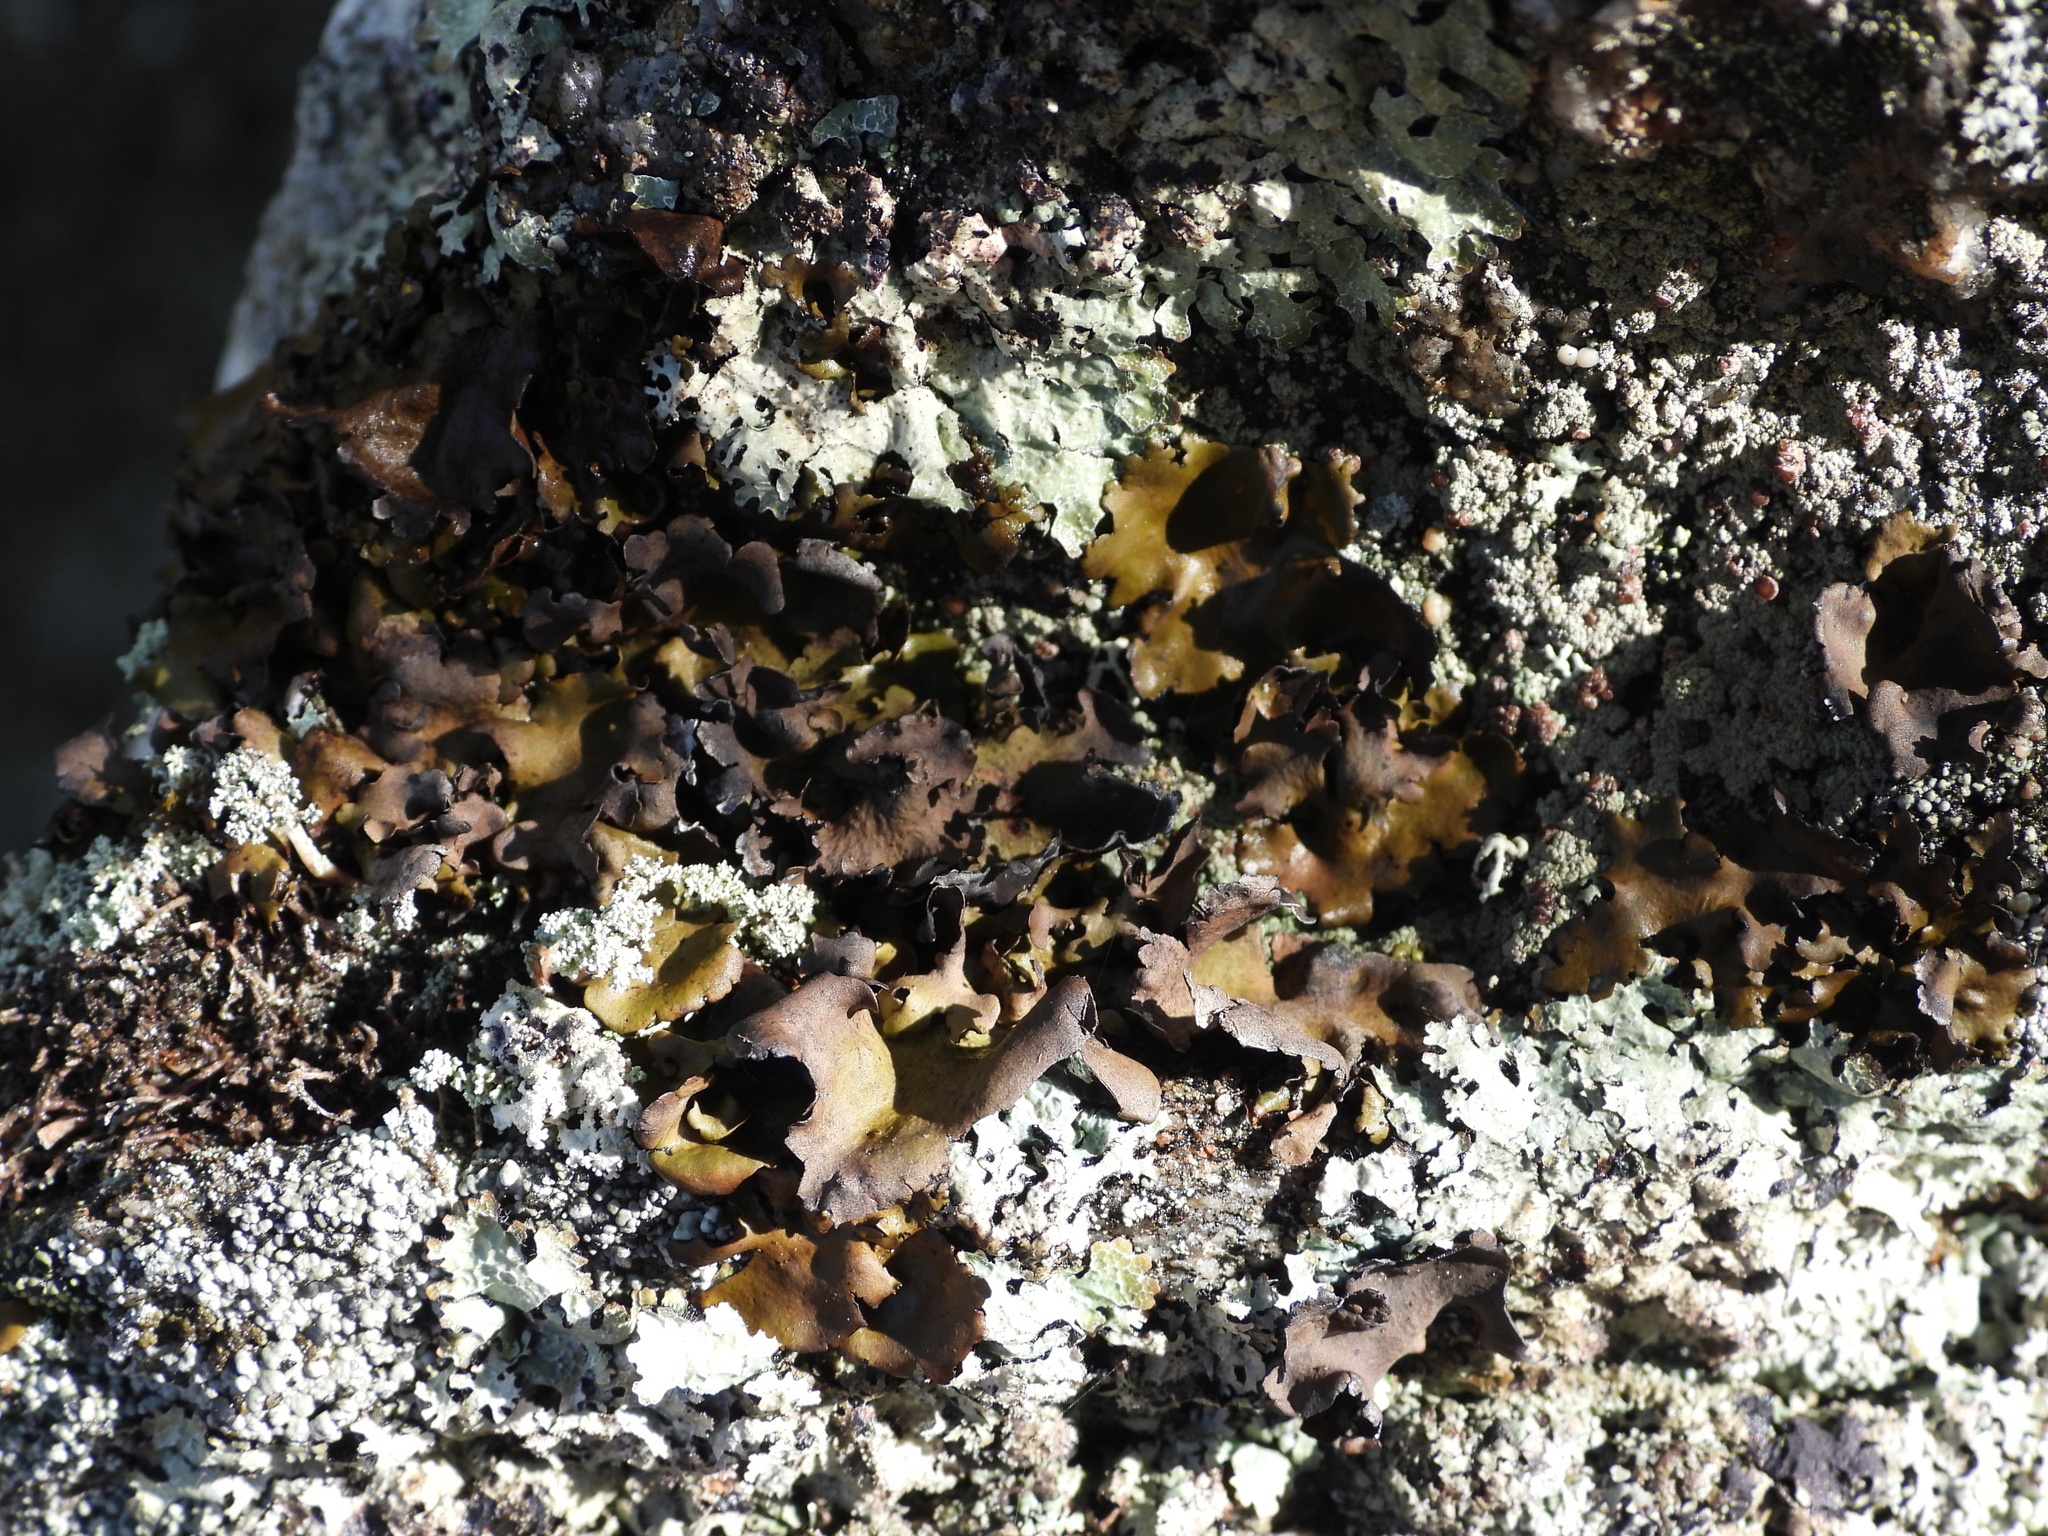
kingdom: Fungi
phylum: Ascomycota
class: Lecanoromycetes
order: Umbilicariales
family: Umbilicariaceae
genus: Umbilicaria
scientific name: Umbilicaria polyphylla
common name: Petalled rocktripe lichen
